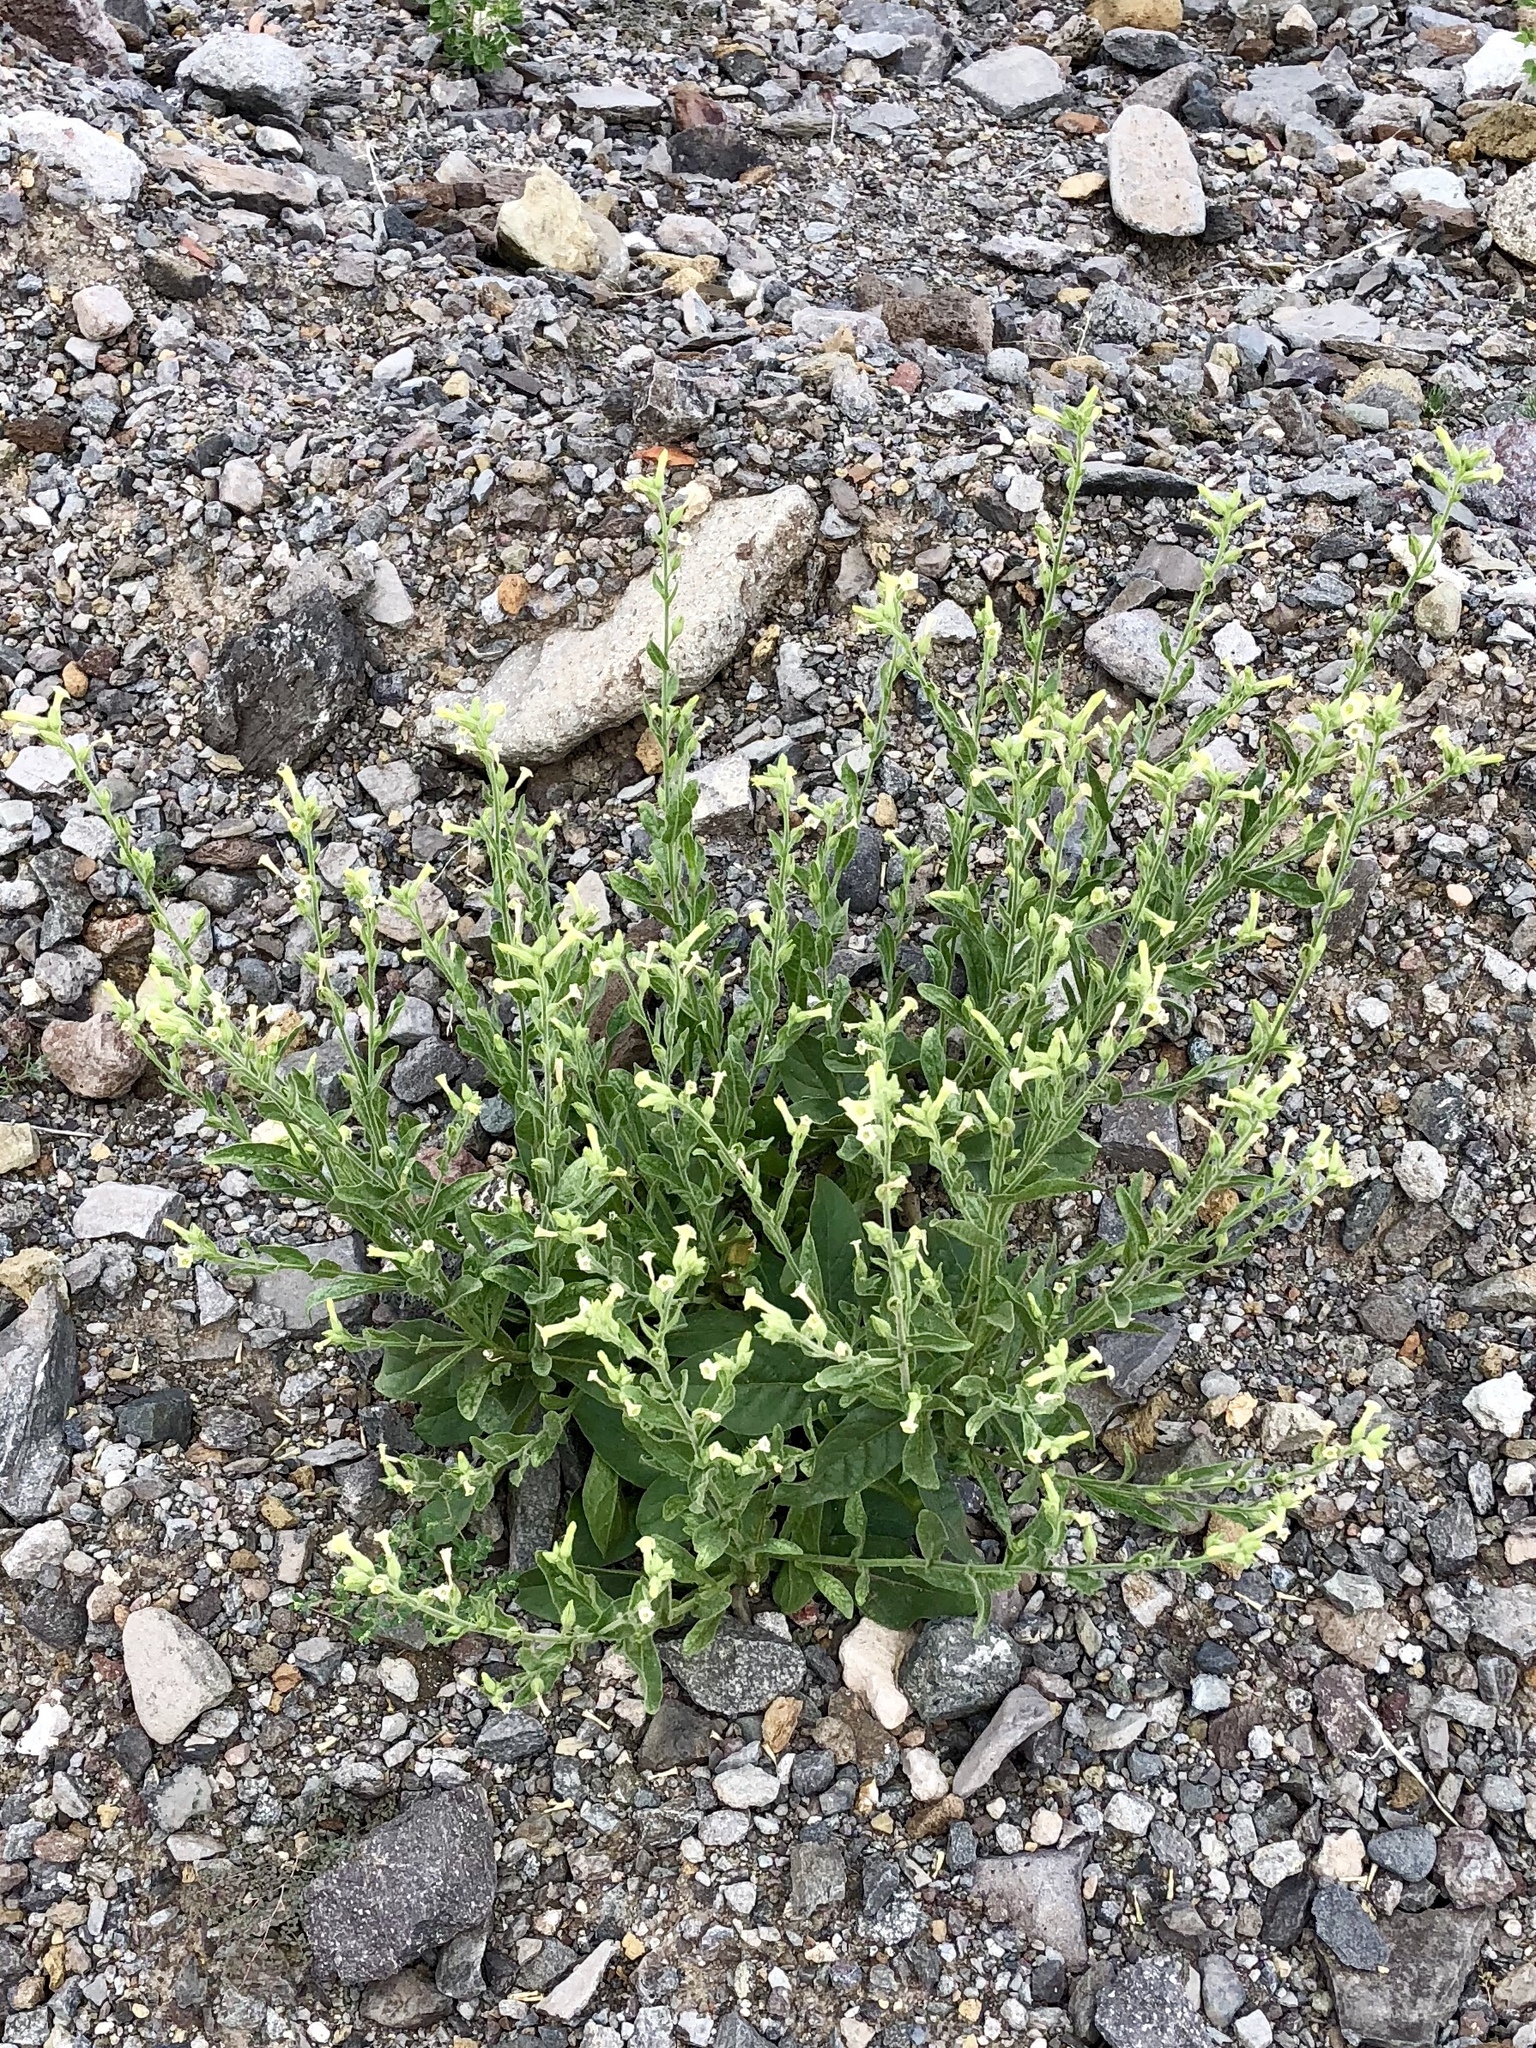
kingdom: Plantae
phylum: Tracheophyta
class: Magnoliopsida
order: Solanales
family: Solanaceae
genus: Nicotiana
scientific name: Nicotiana obtusifolia
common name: Desert tobacco
